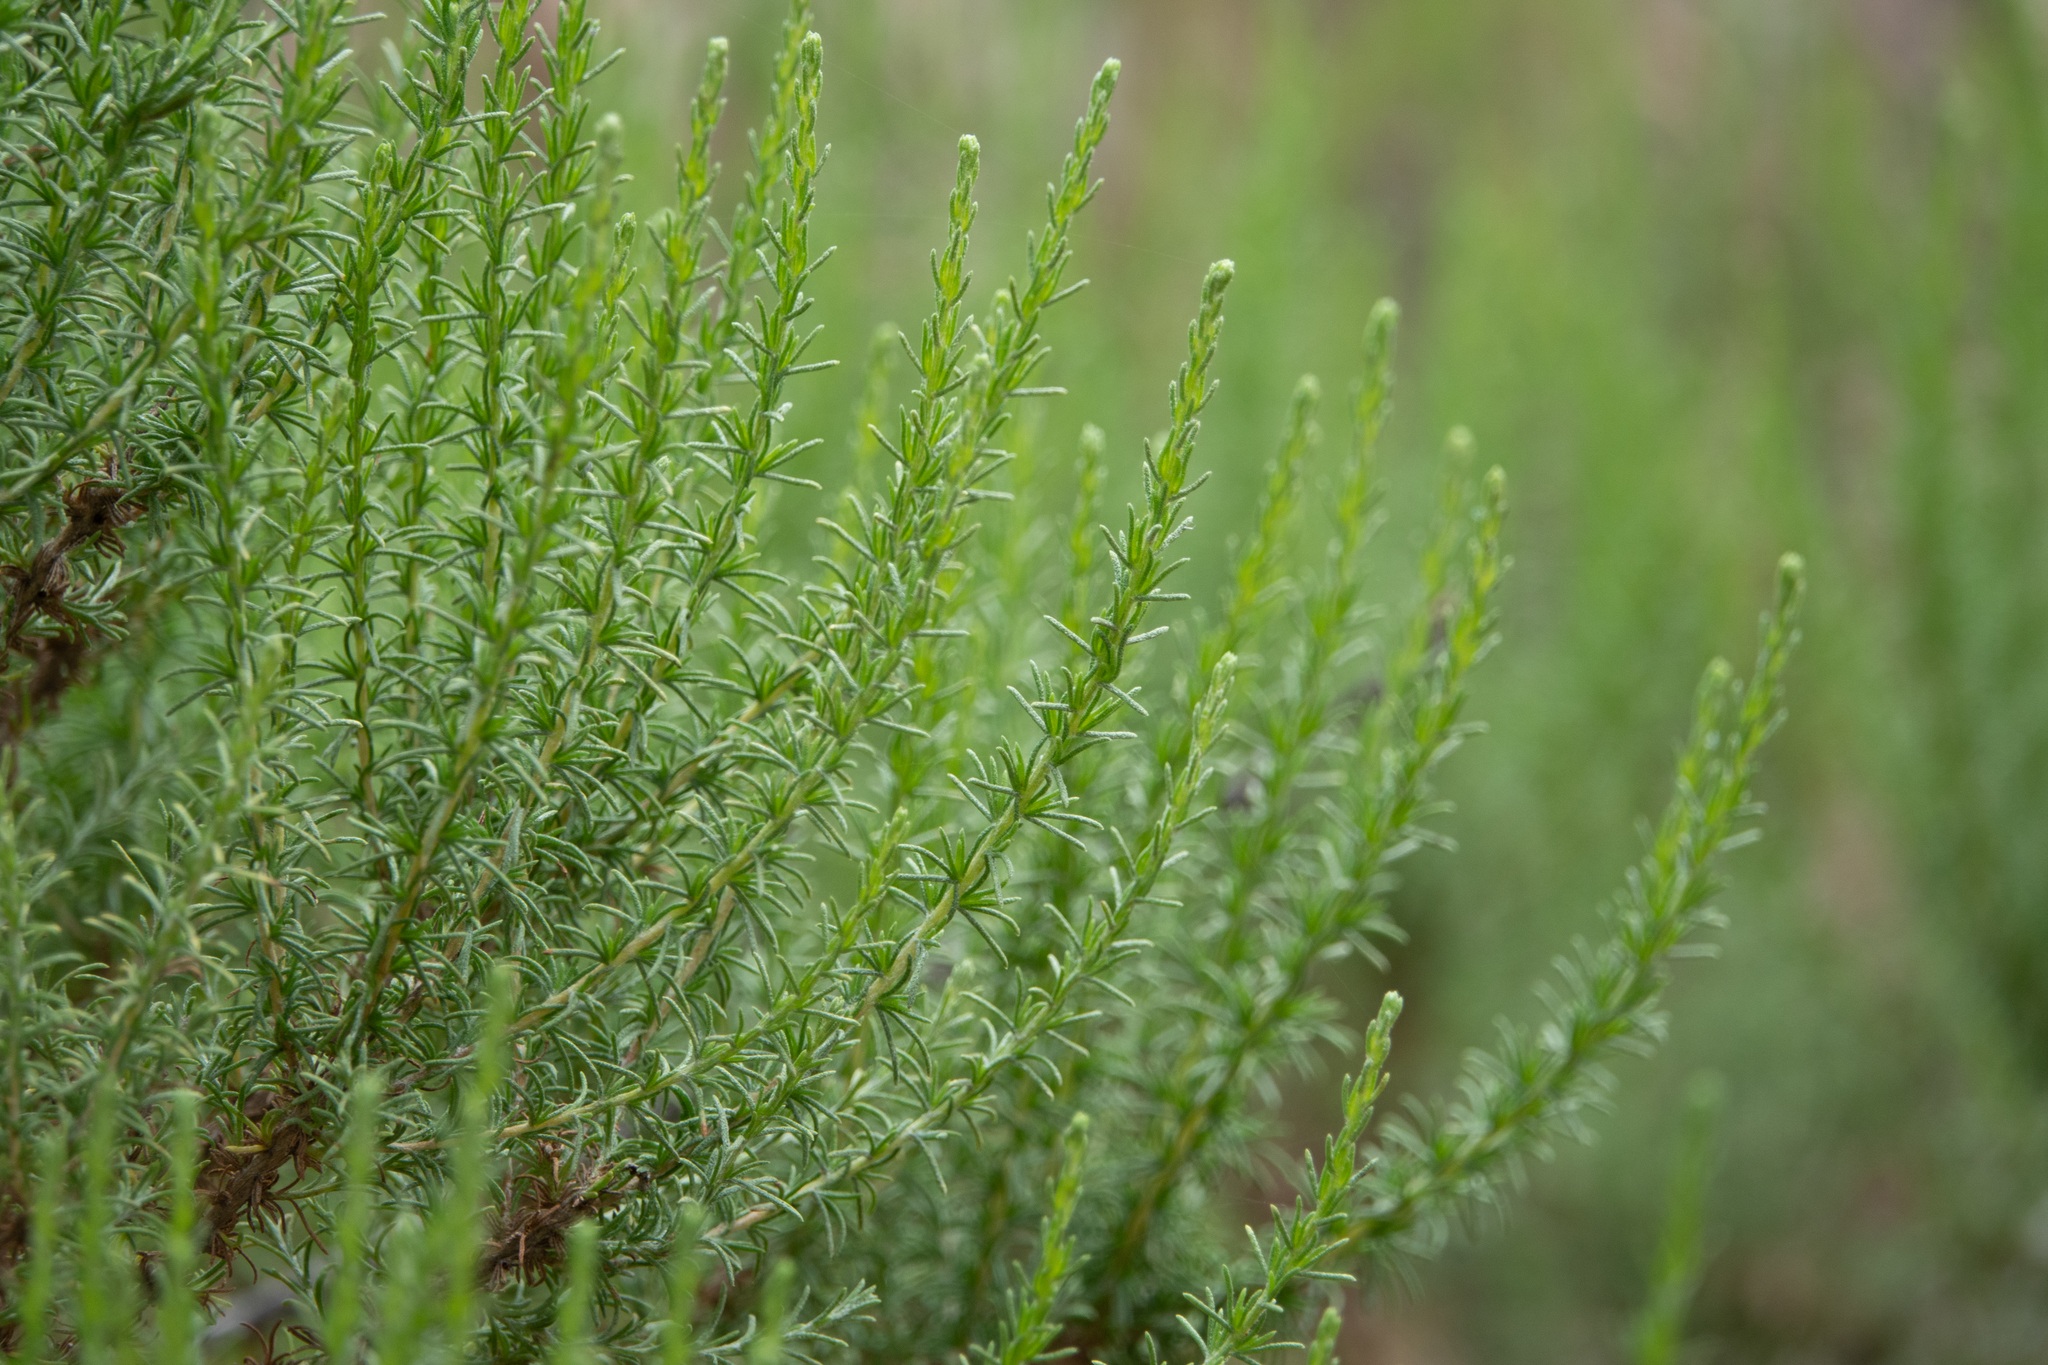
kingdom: Plantae
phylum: Tracheophyta
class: Magnoliopsida
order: Asterales
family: Asteraceae
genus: Ericameria
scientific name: Ericameria ericoides
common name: California goldenbush
